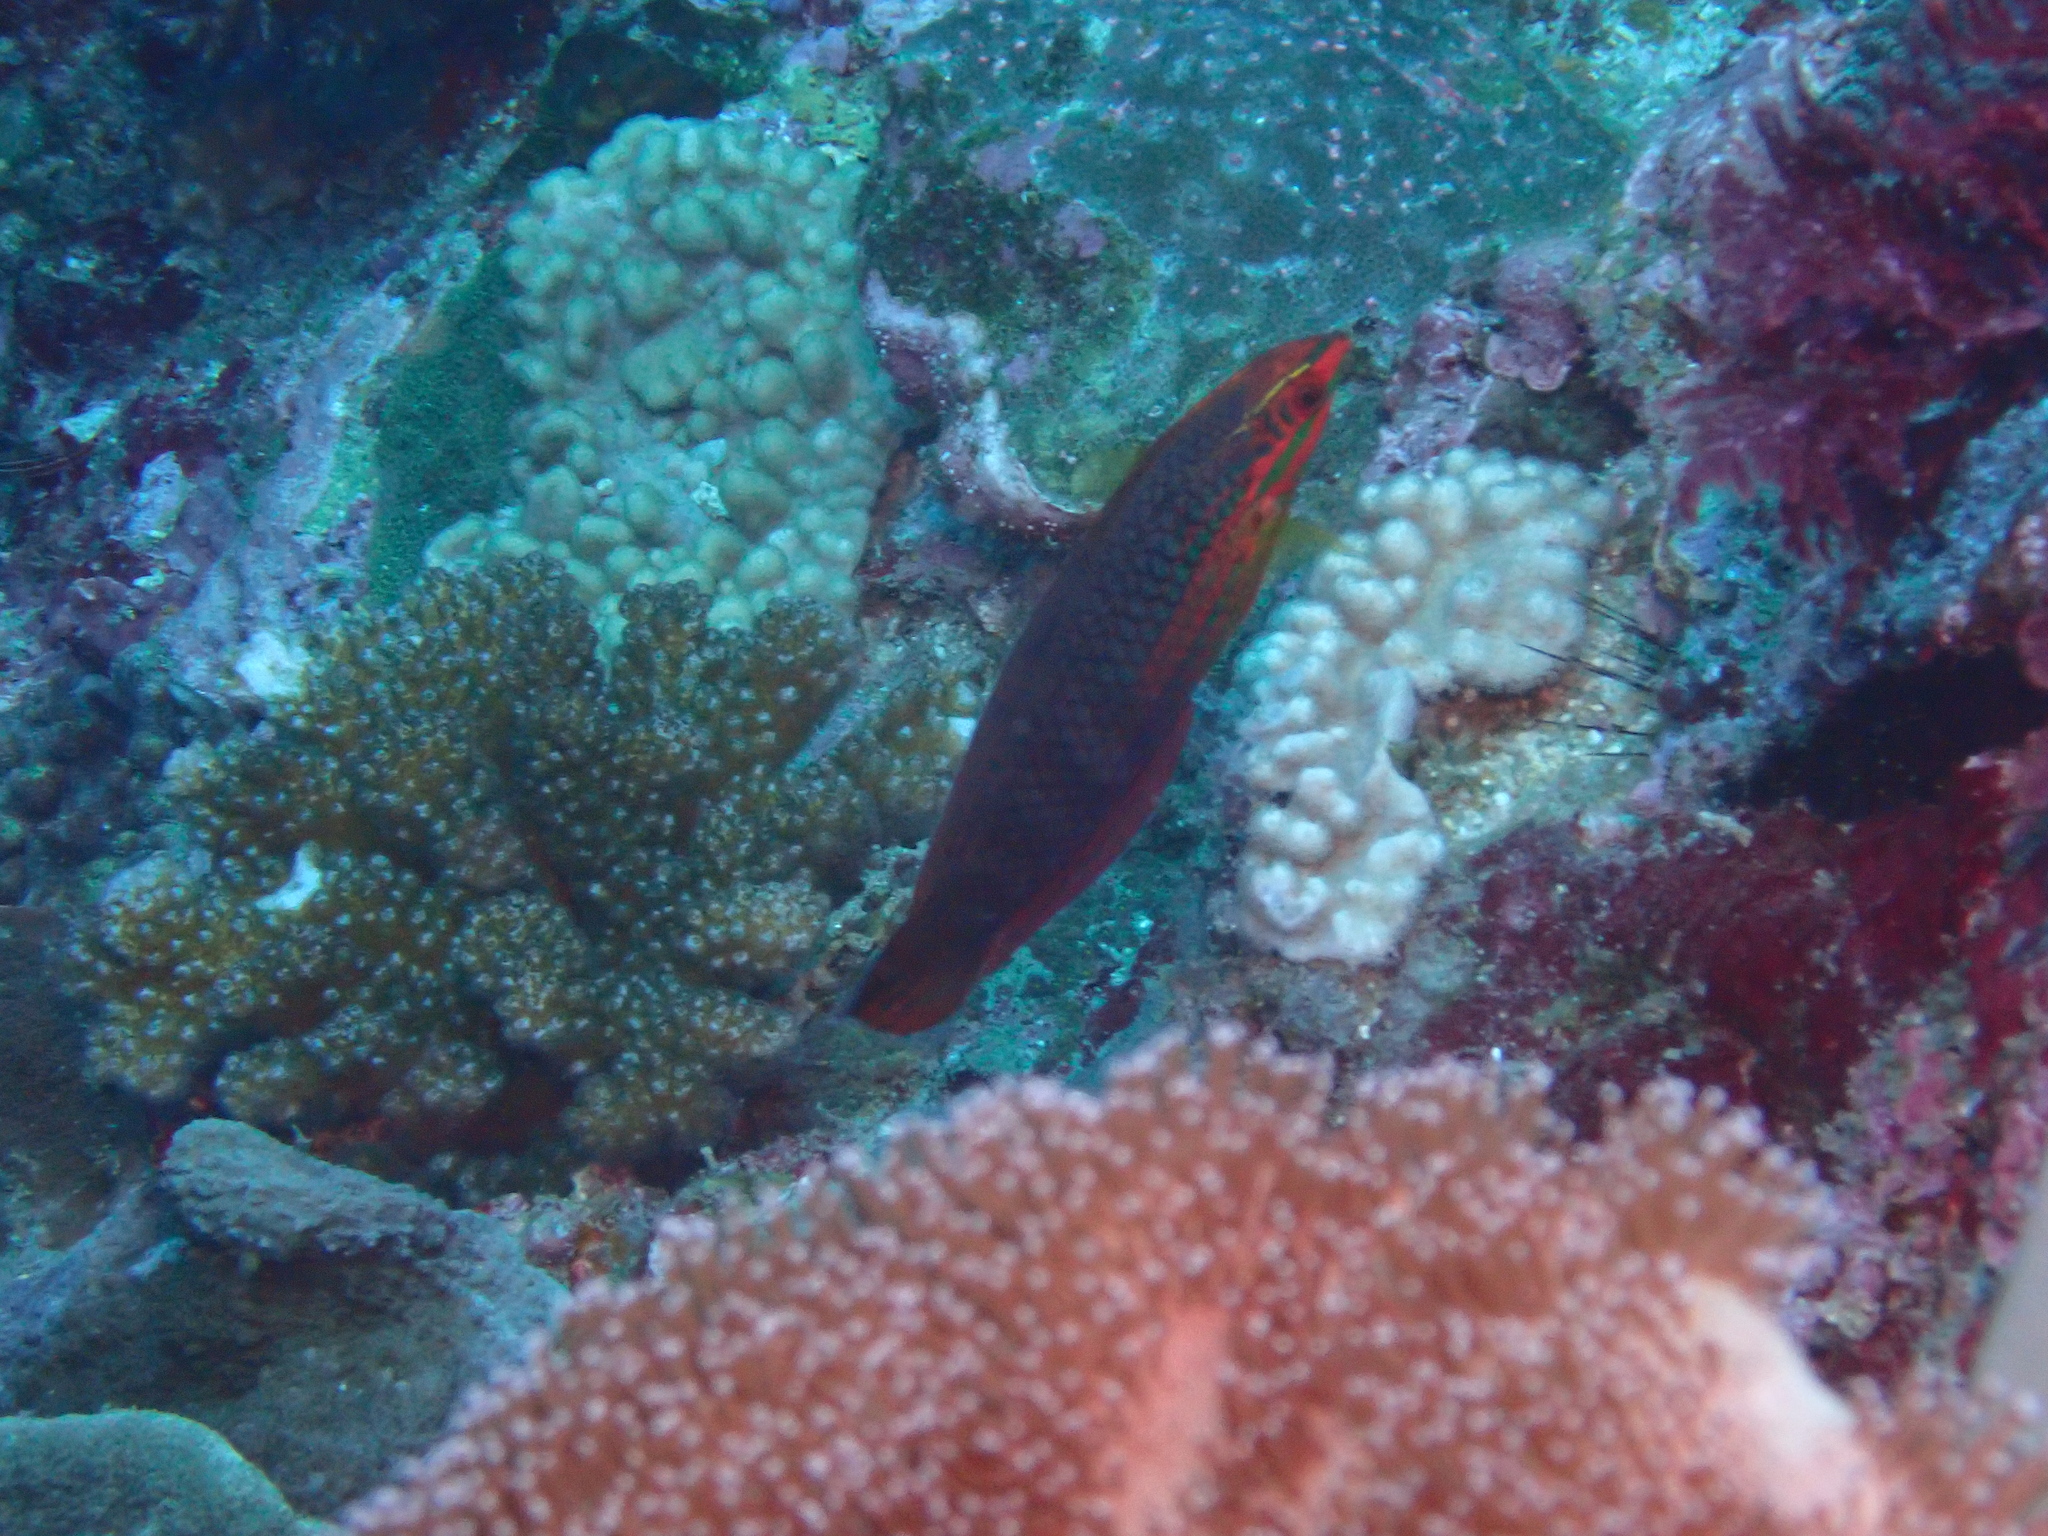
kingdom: Animalia
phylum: Chordata
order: Perciformes
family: Labridae
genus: Halichoeres
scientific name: Halichoeres biocellatus
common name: False-eyed wrasse
